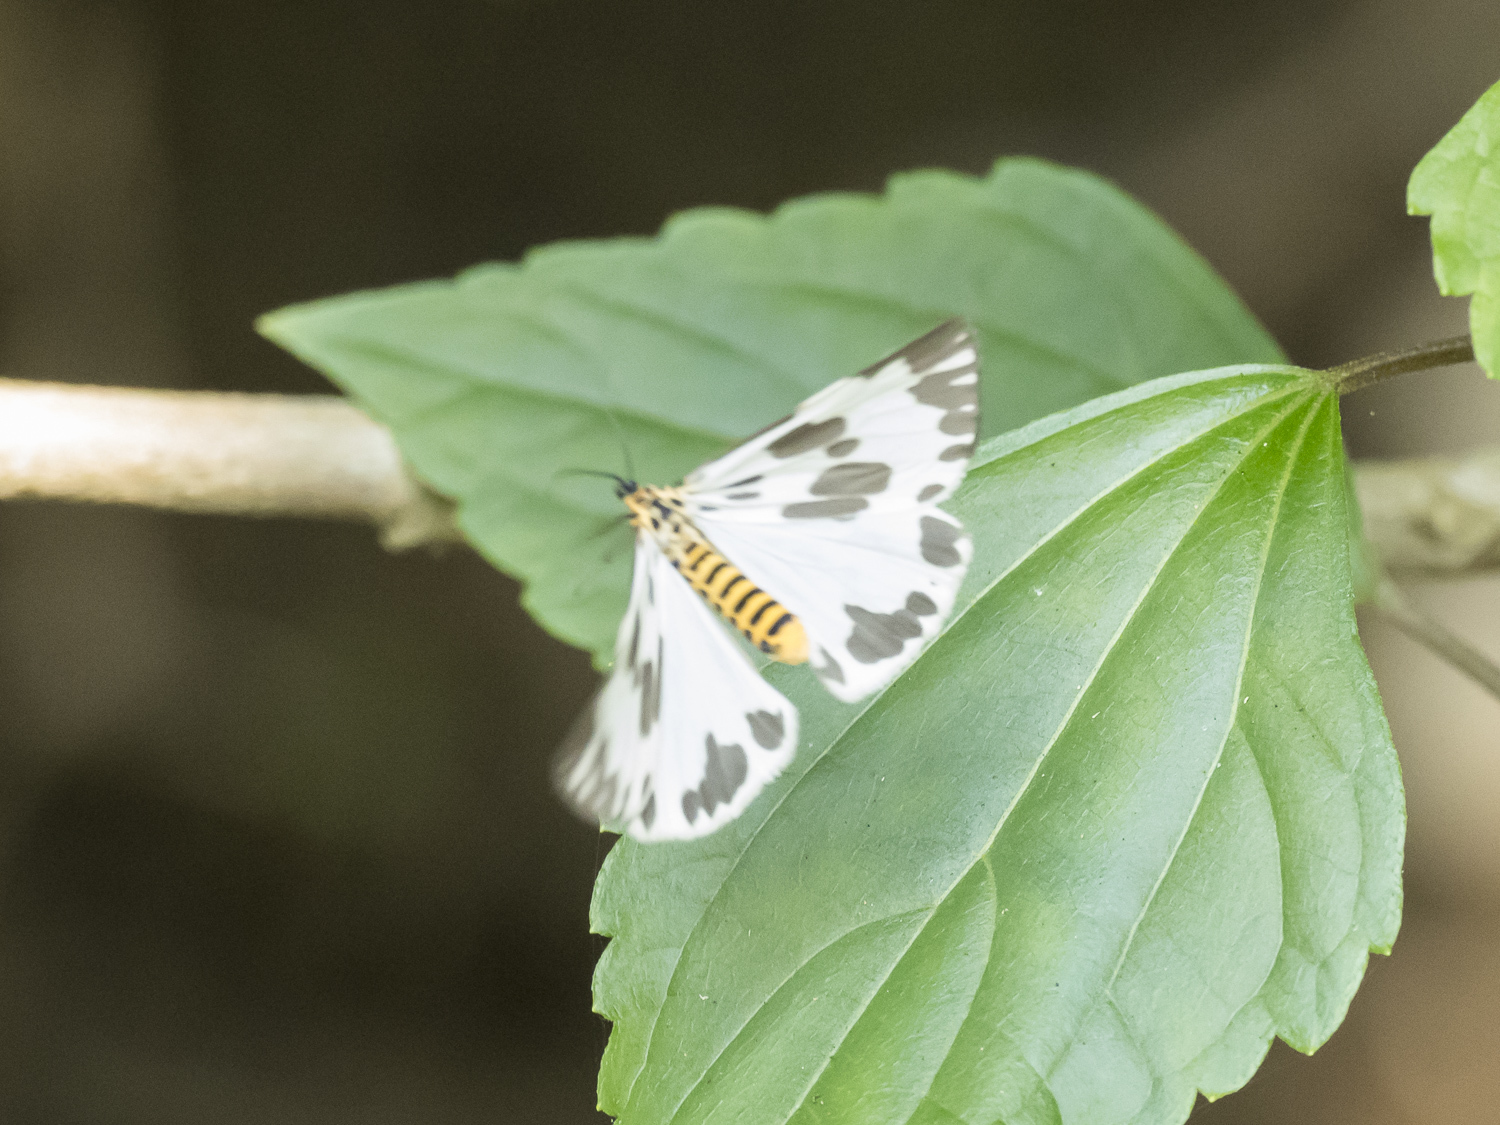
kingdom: Animalia
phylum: Arthropoda
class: Insecta
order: Lepidoptera
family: Erebidae
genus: Nyctemera
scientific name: Nyctemera cenis
